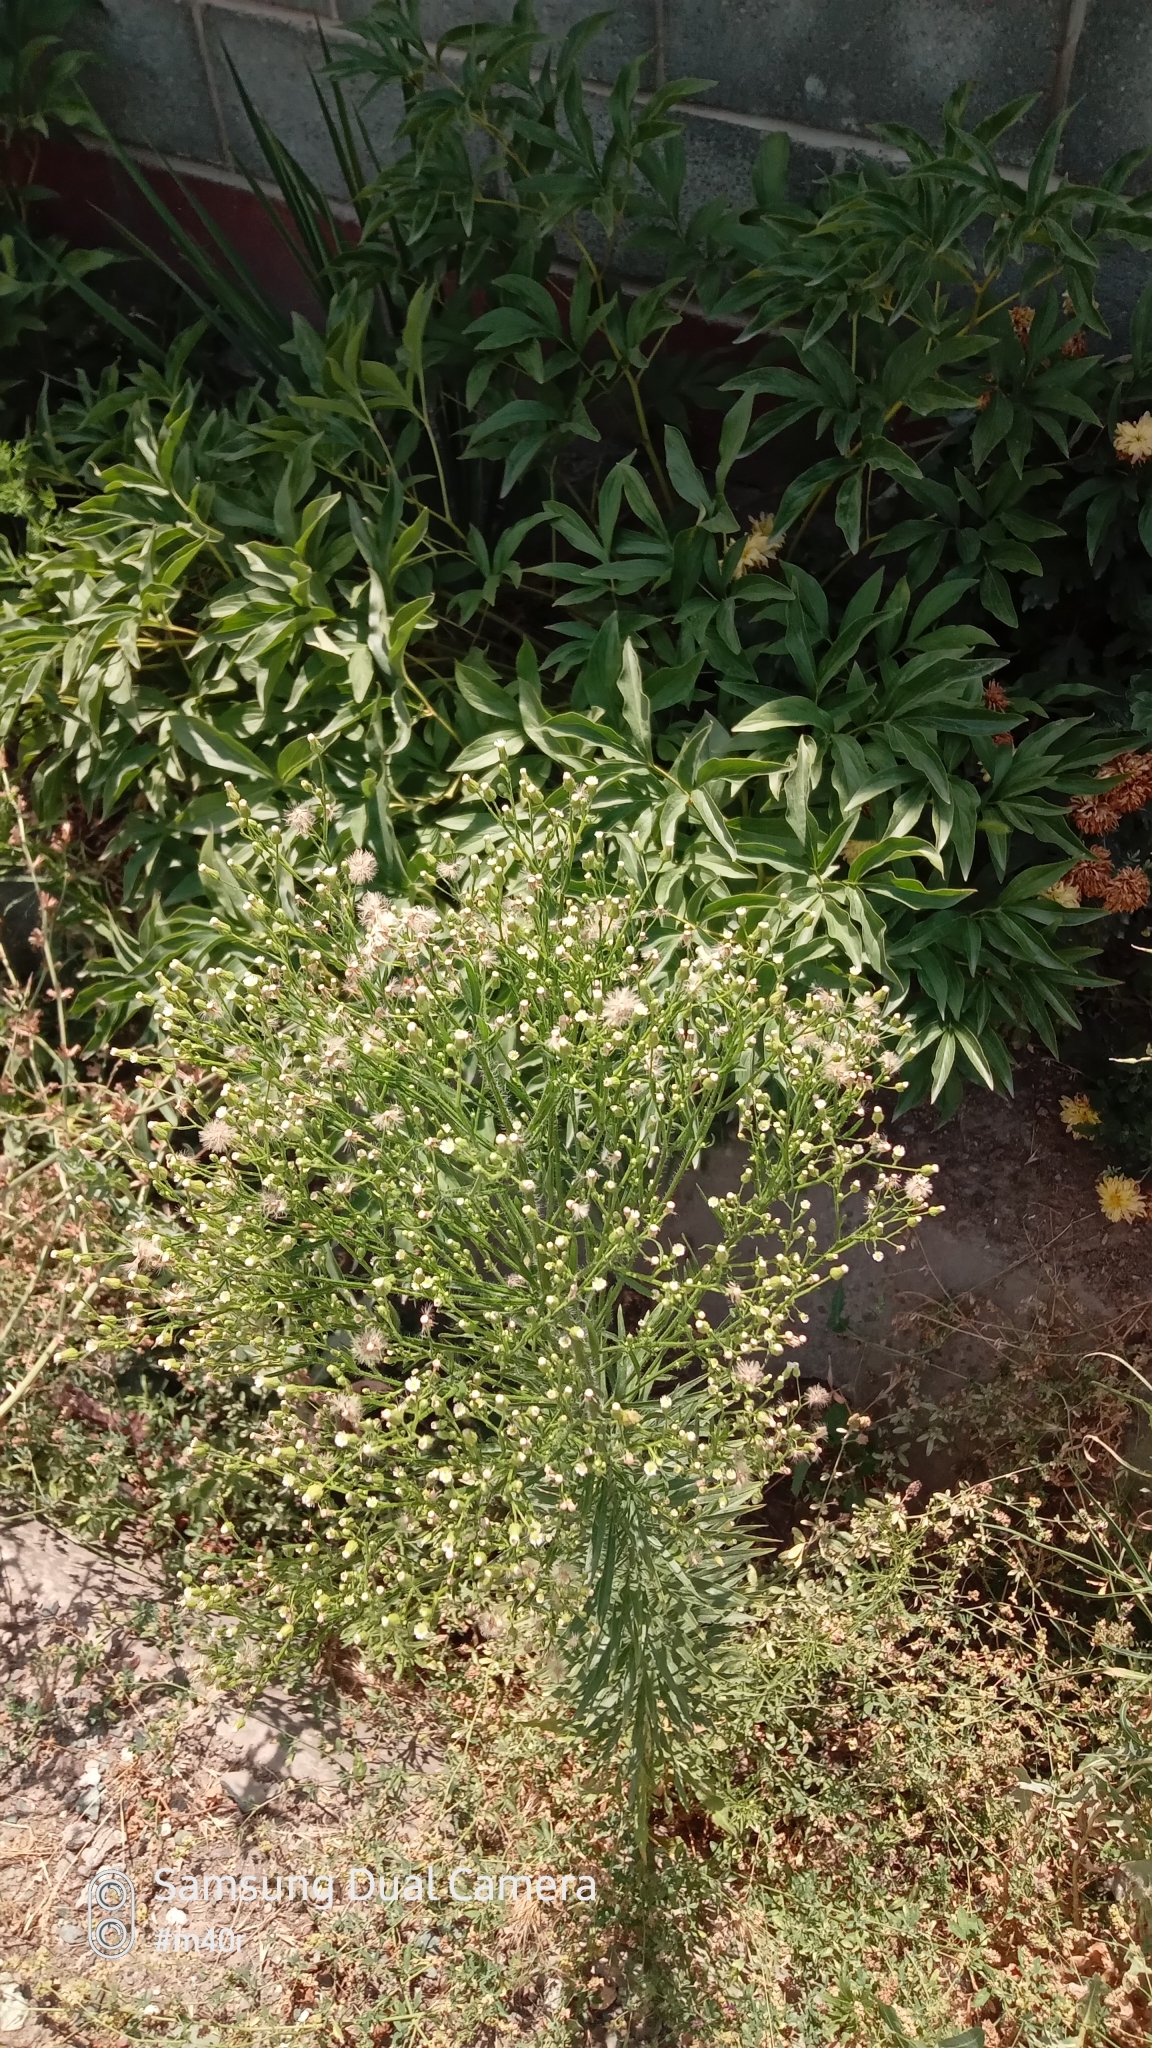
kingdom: Plantae
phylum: Tracheophyta
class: Magnoliopsida
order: Asterales
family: Asteraceae
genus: Erigeron
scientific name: Erigeron canadensis
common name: Canadian fleabane
